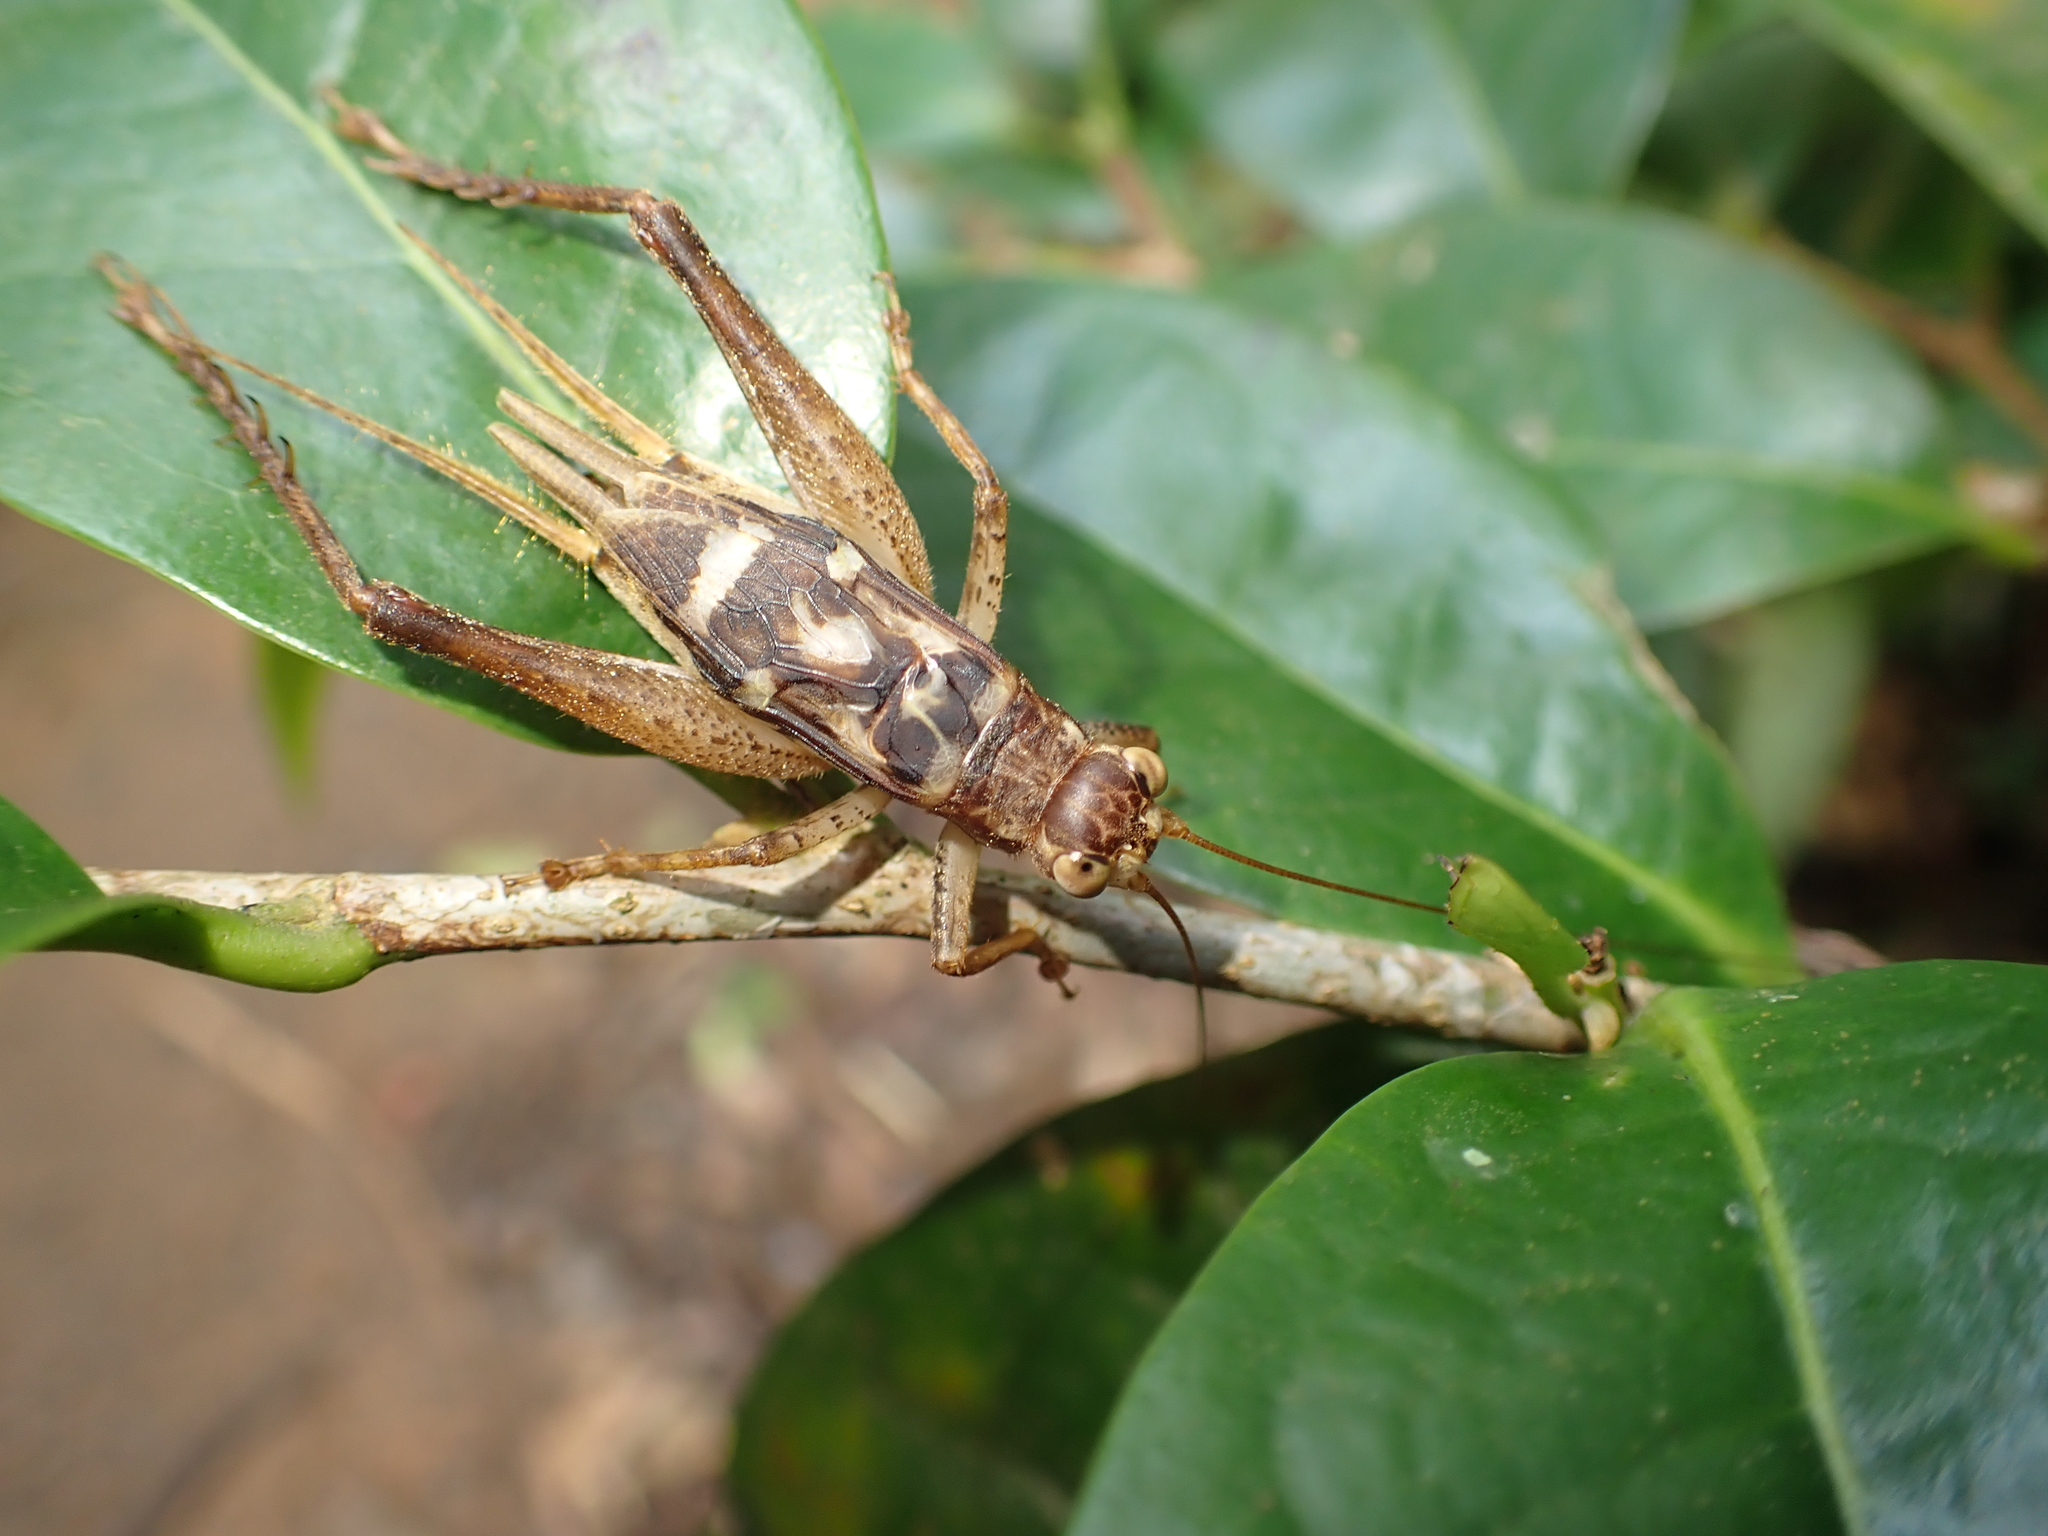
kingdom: Animalia
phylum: Arthropoda
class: Insecta
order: Orthoptera
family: Gryllidae
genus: Cardiodactylus
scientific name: Cardiodactylus guttulus
